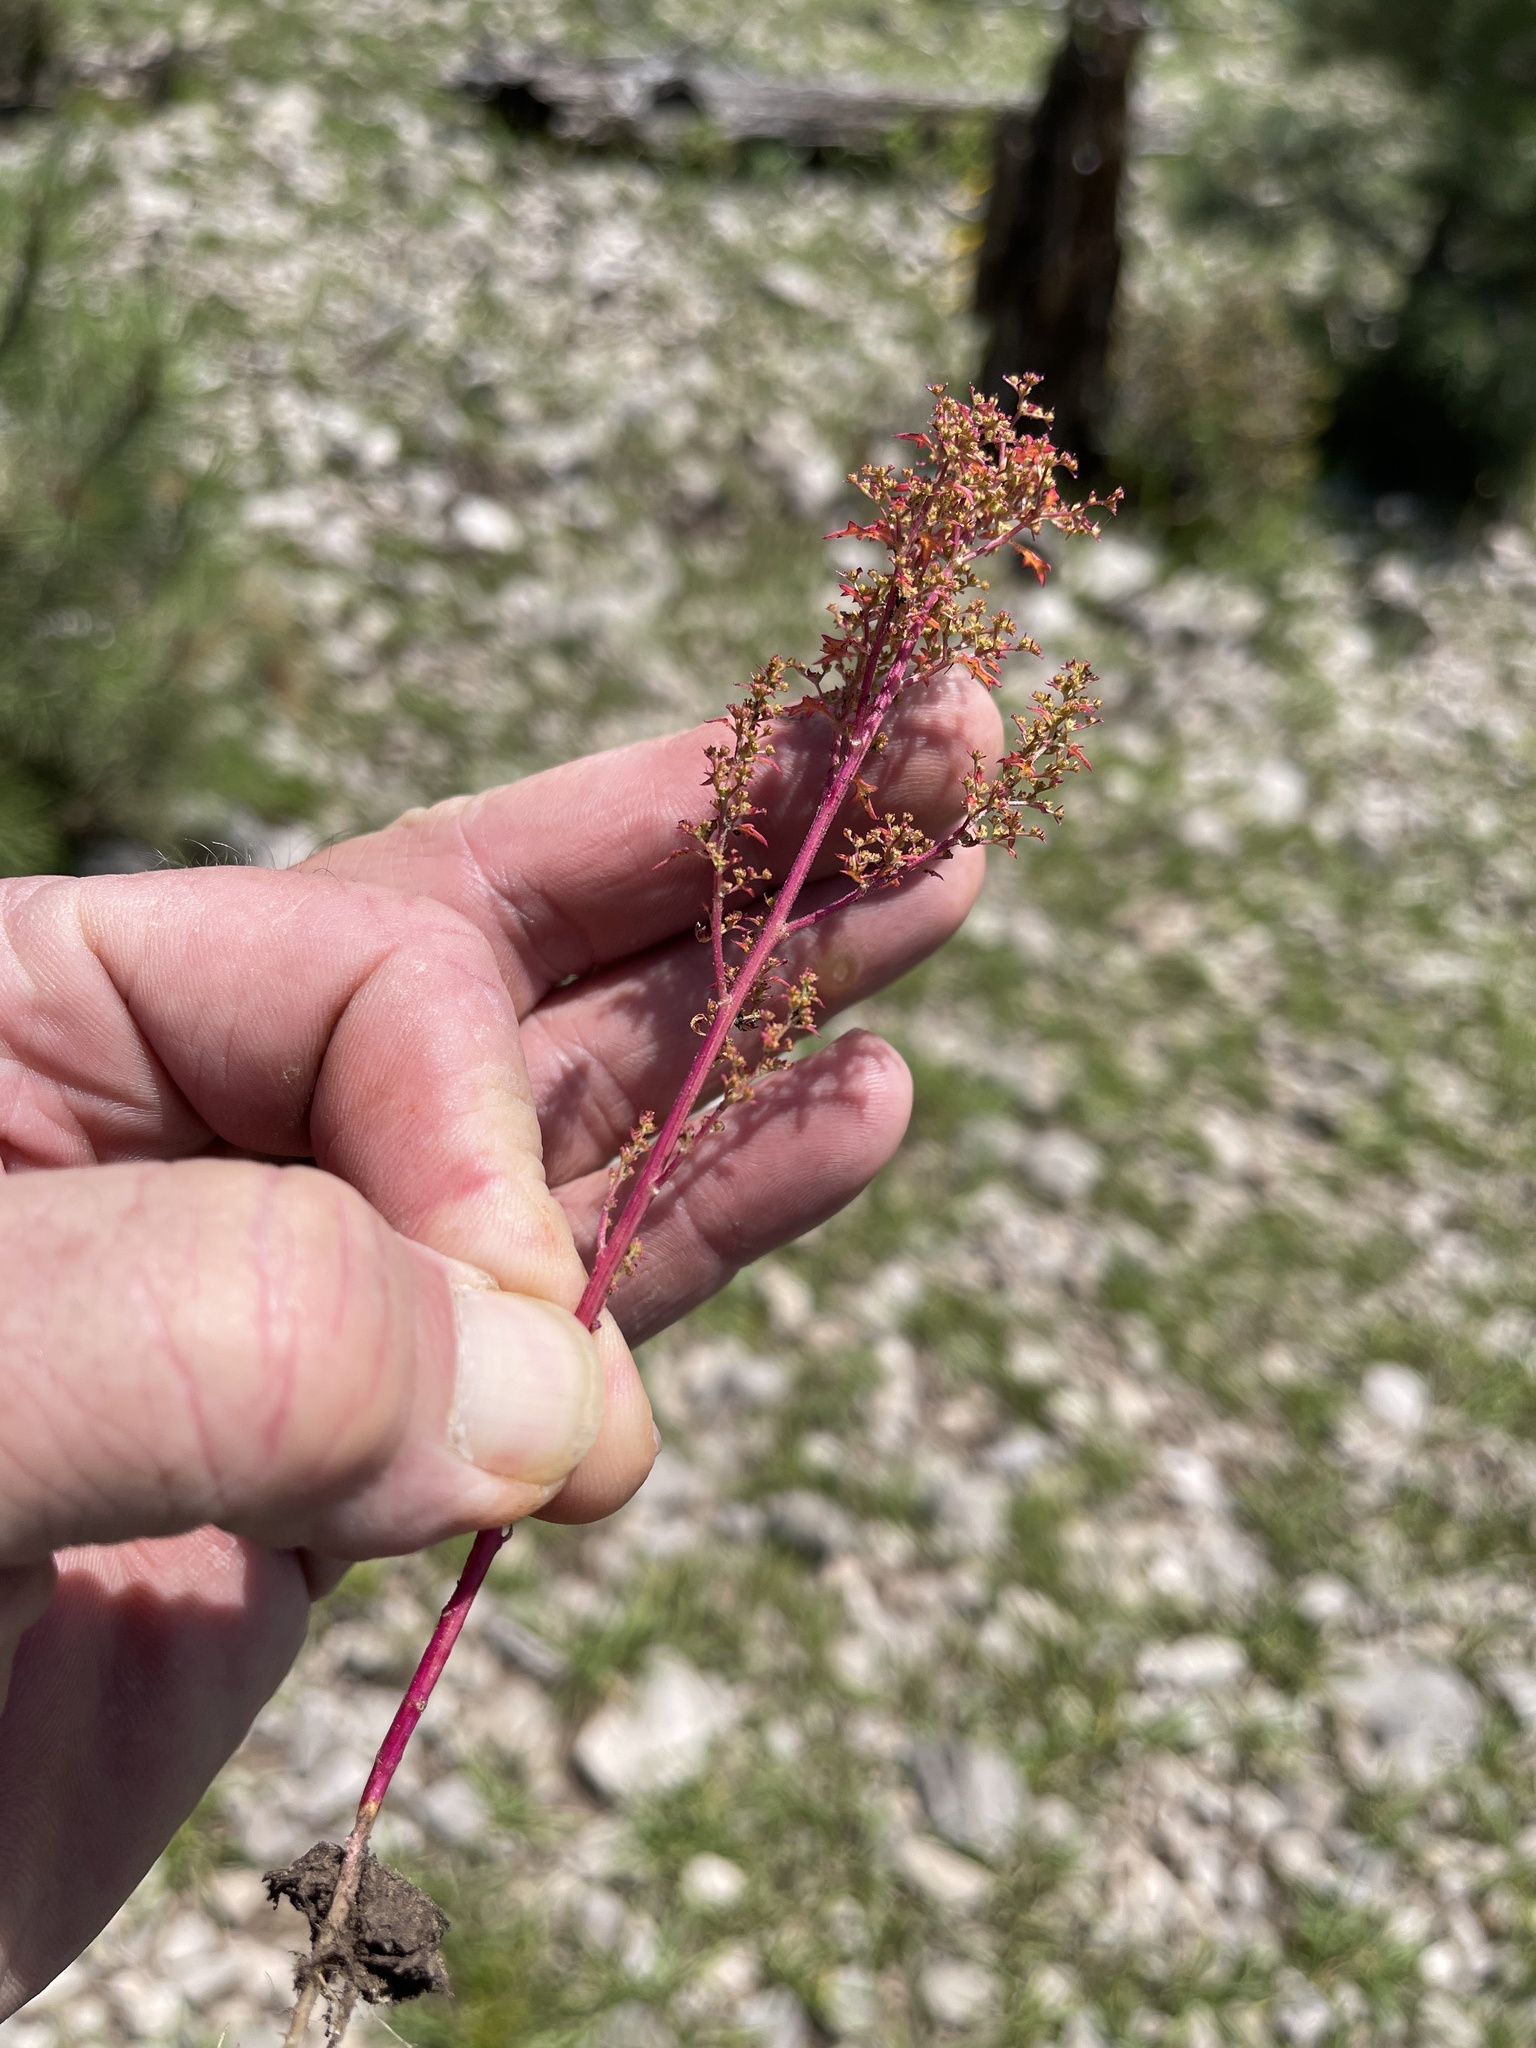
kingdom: Plantae
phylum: Tracheophyta
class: Magnoliopsida
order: Caryophyllales
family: Amaranthaceae
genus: Dysphania
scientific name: Dysphania incisa
